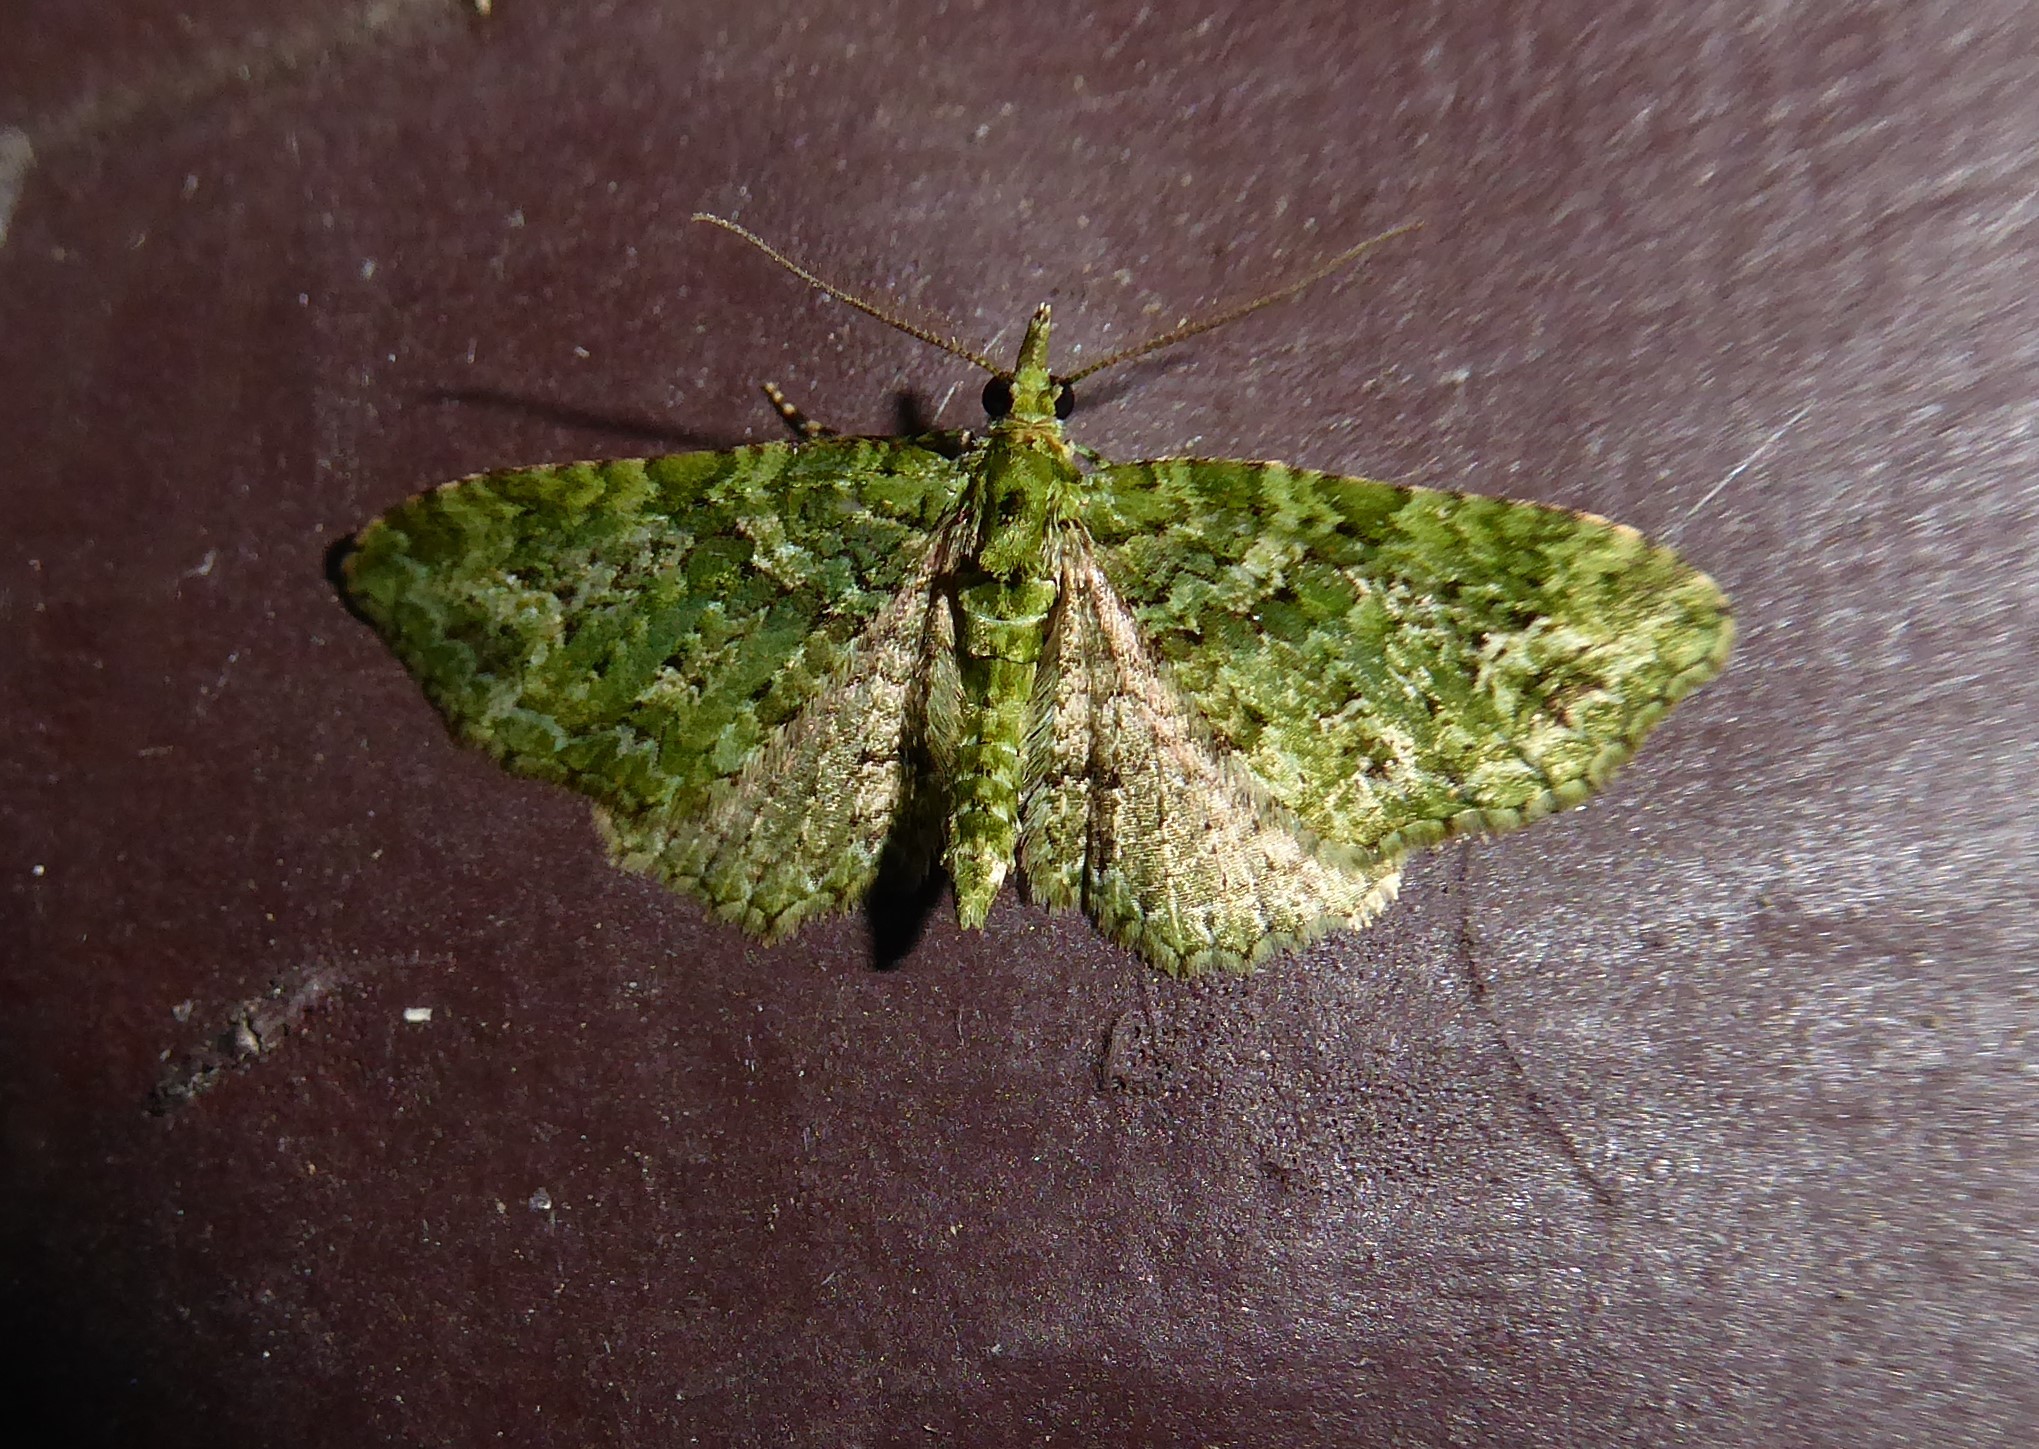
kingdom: Animalia
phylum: Arthropoda
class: Insecta
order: Lepidoptera
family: Geometridae
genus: Pasiphila
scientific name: Pasiphila muscosata
